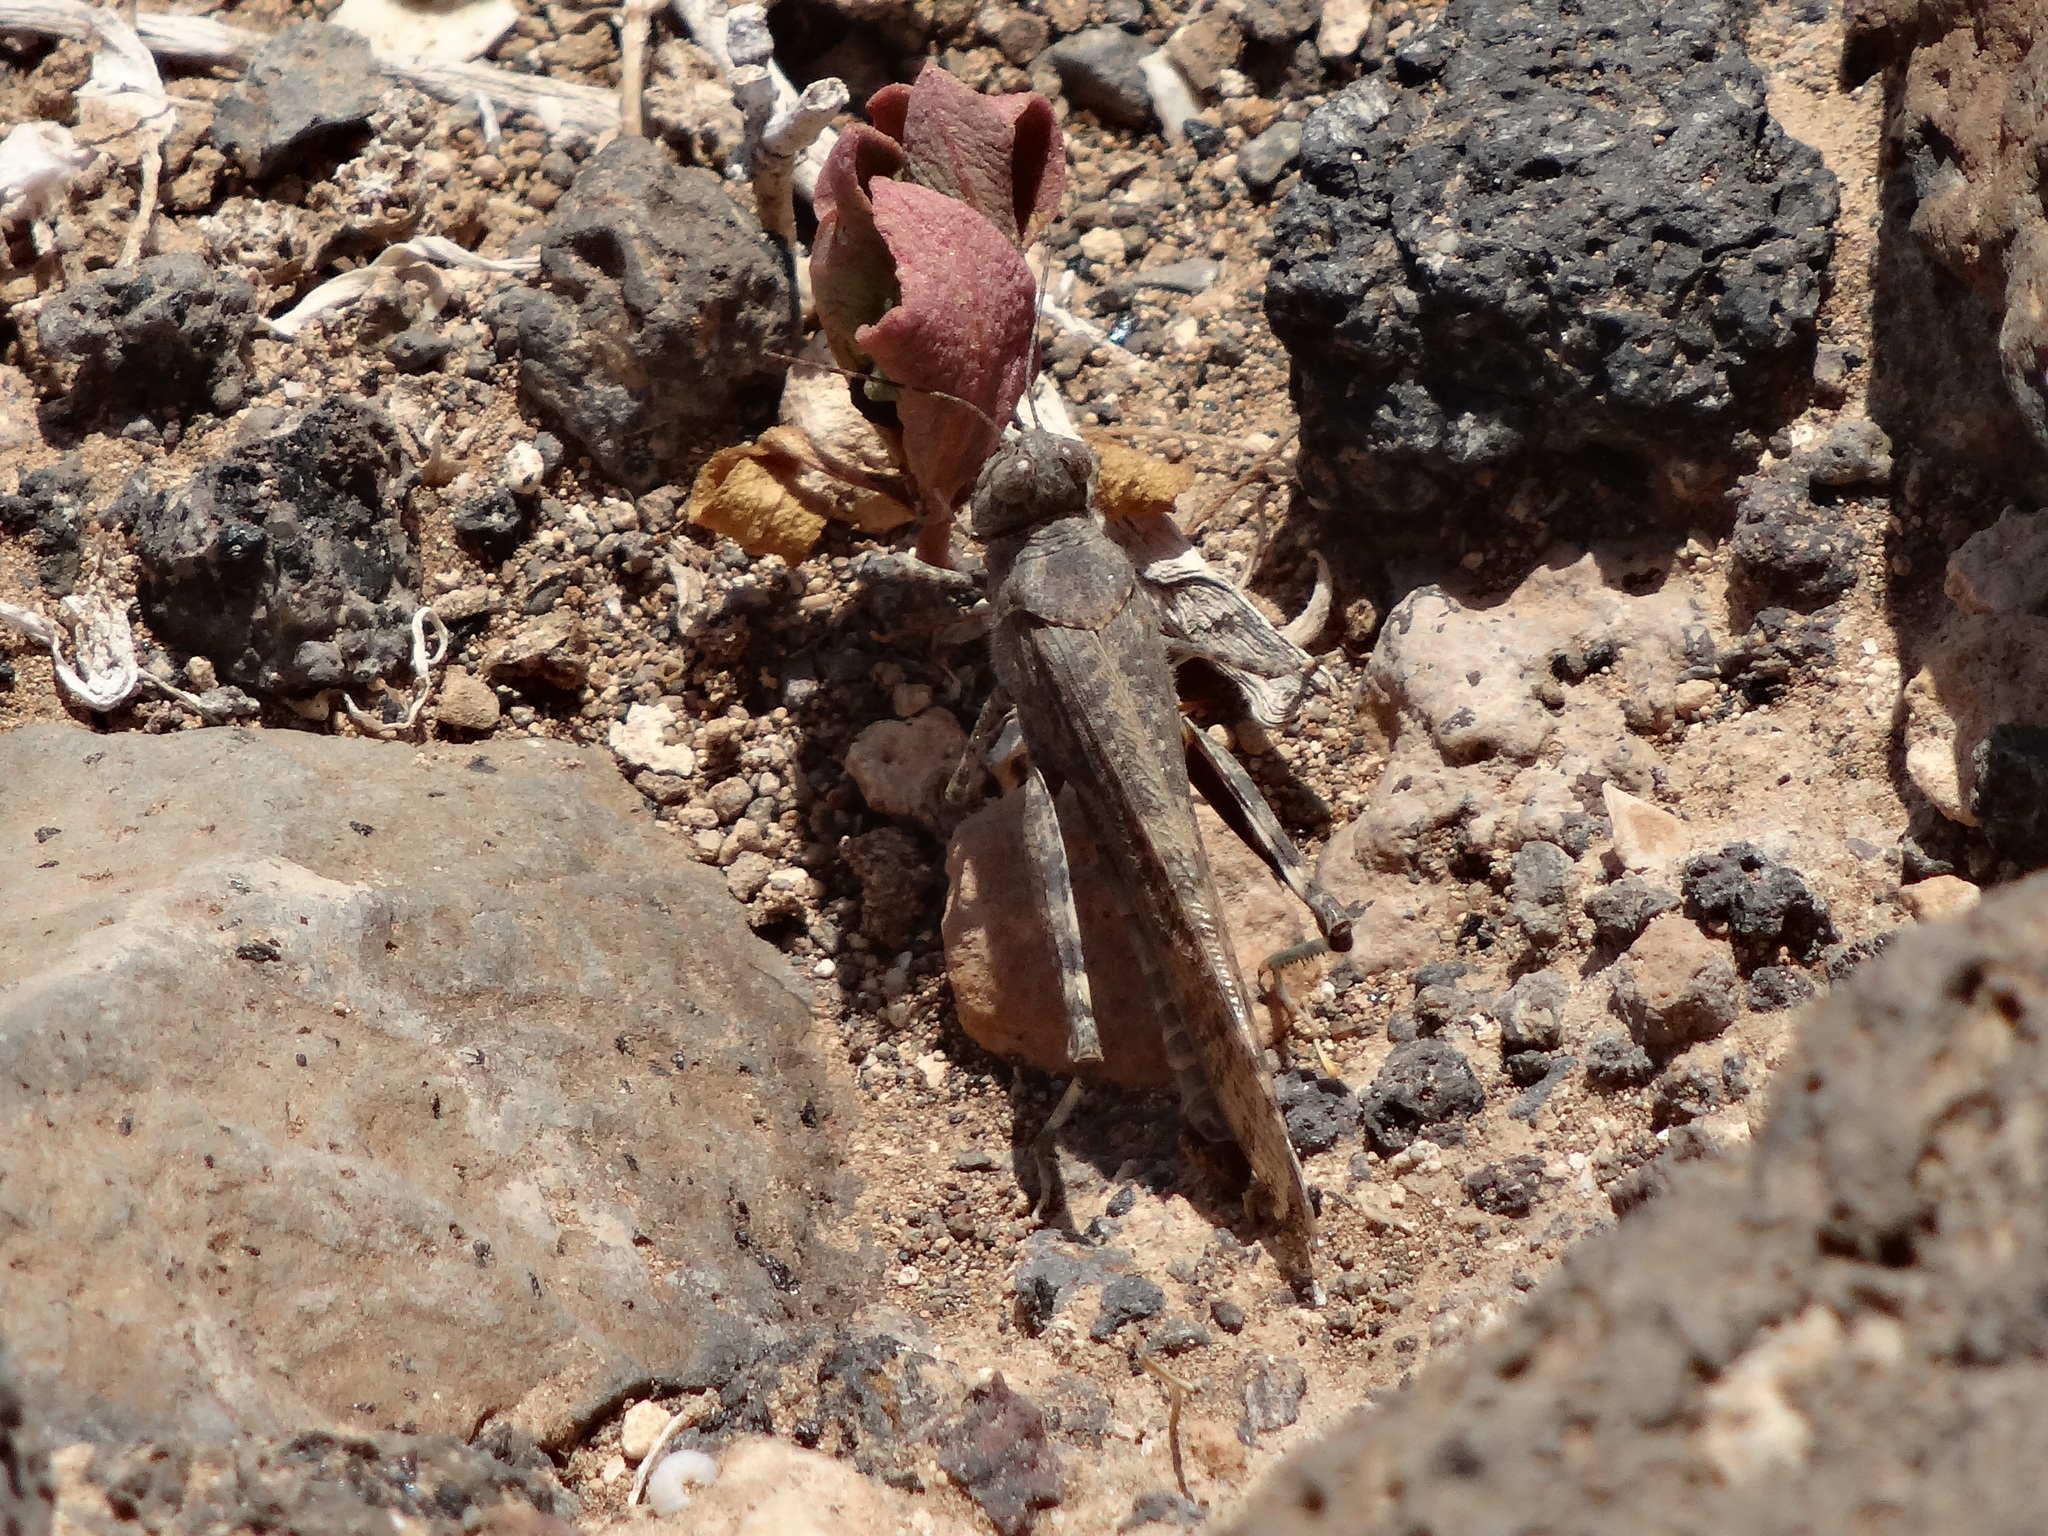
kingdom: Animalia
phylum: Arthropoda
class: Insecta
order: Orthoptera
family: Acrididae
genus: Sphingonotus
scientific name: Sphingonotus rubescens
